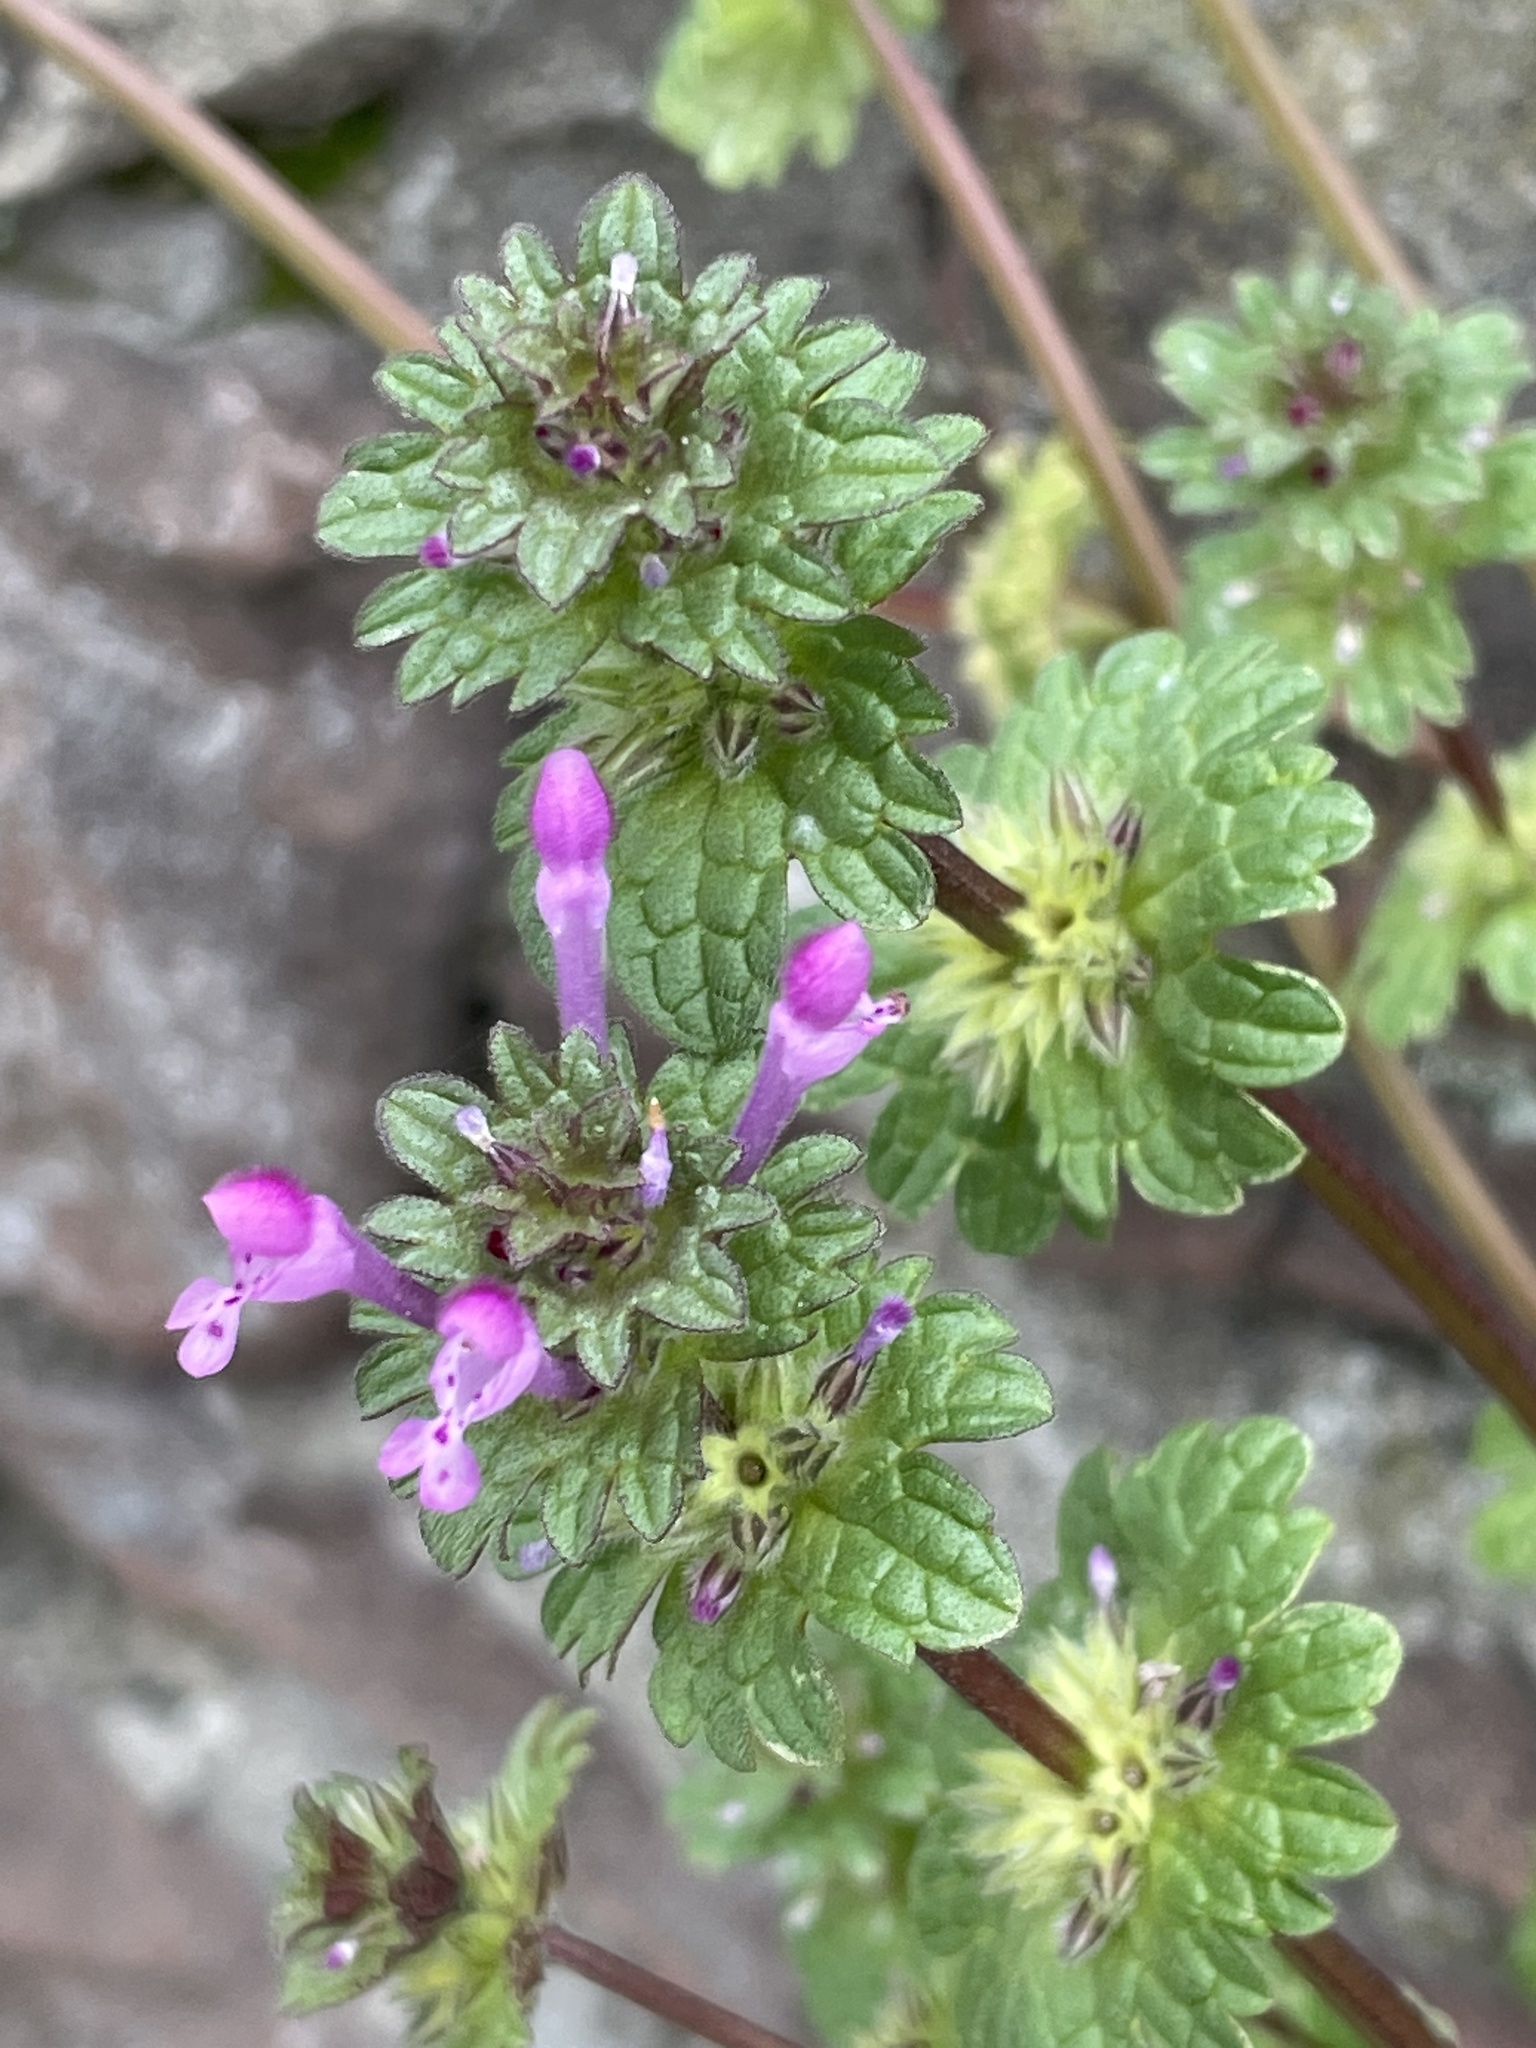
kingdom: Plantae
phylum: Tracheophyta
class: Magnoliopsida
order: Lamiales
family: Lamiaceae
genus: Lamium
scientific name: Lamium amplexicaule
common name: Henbit dead-nettle
